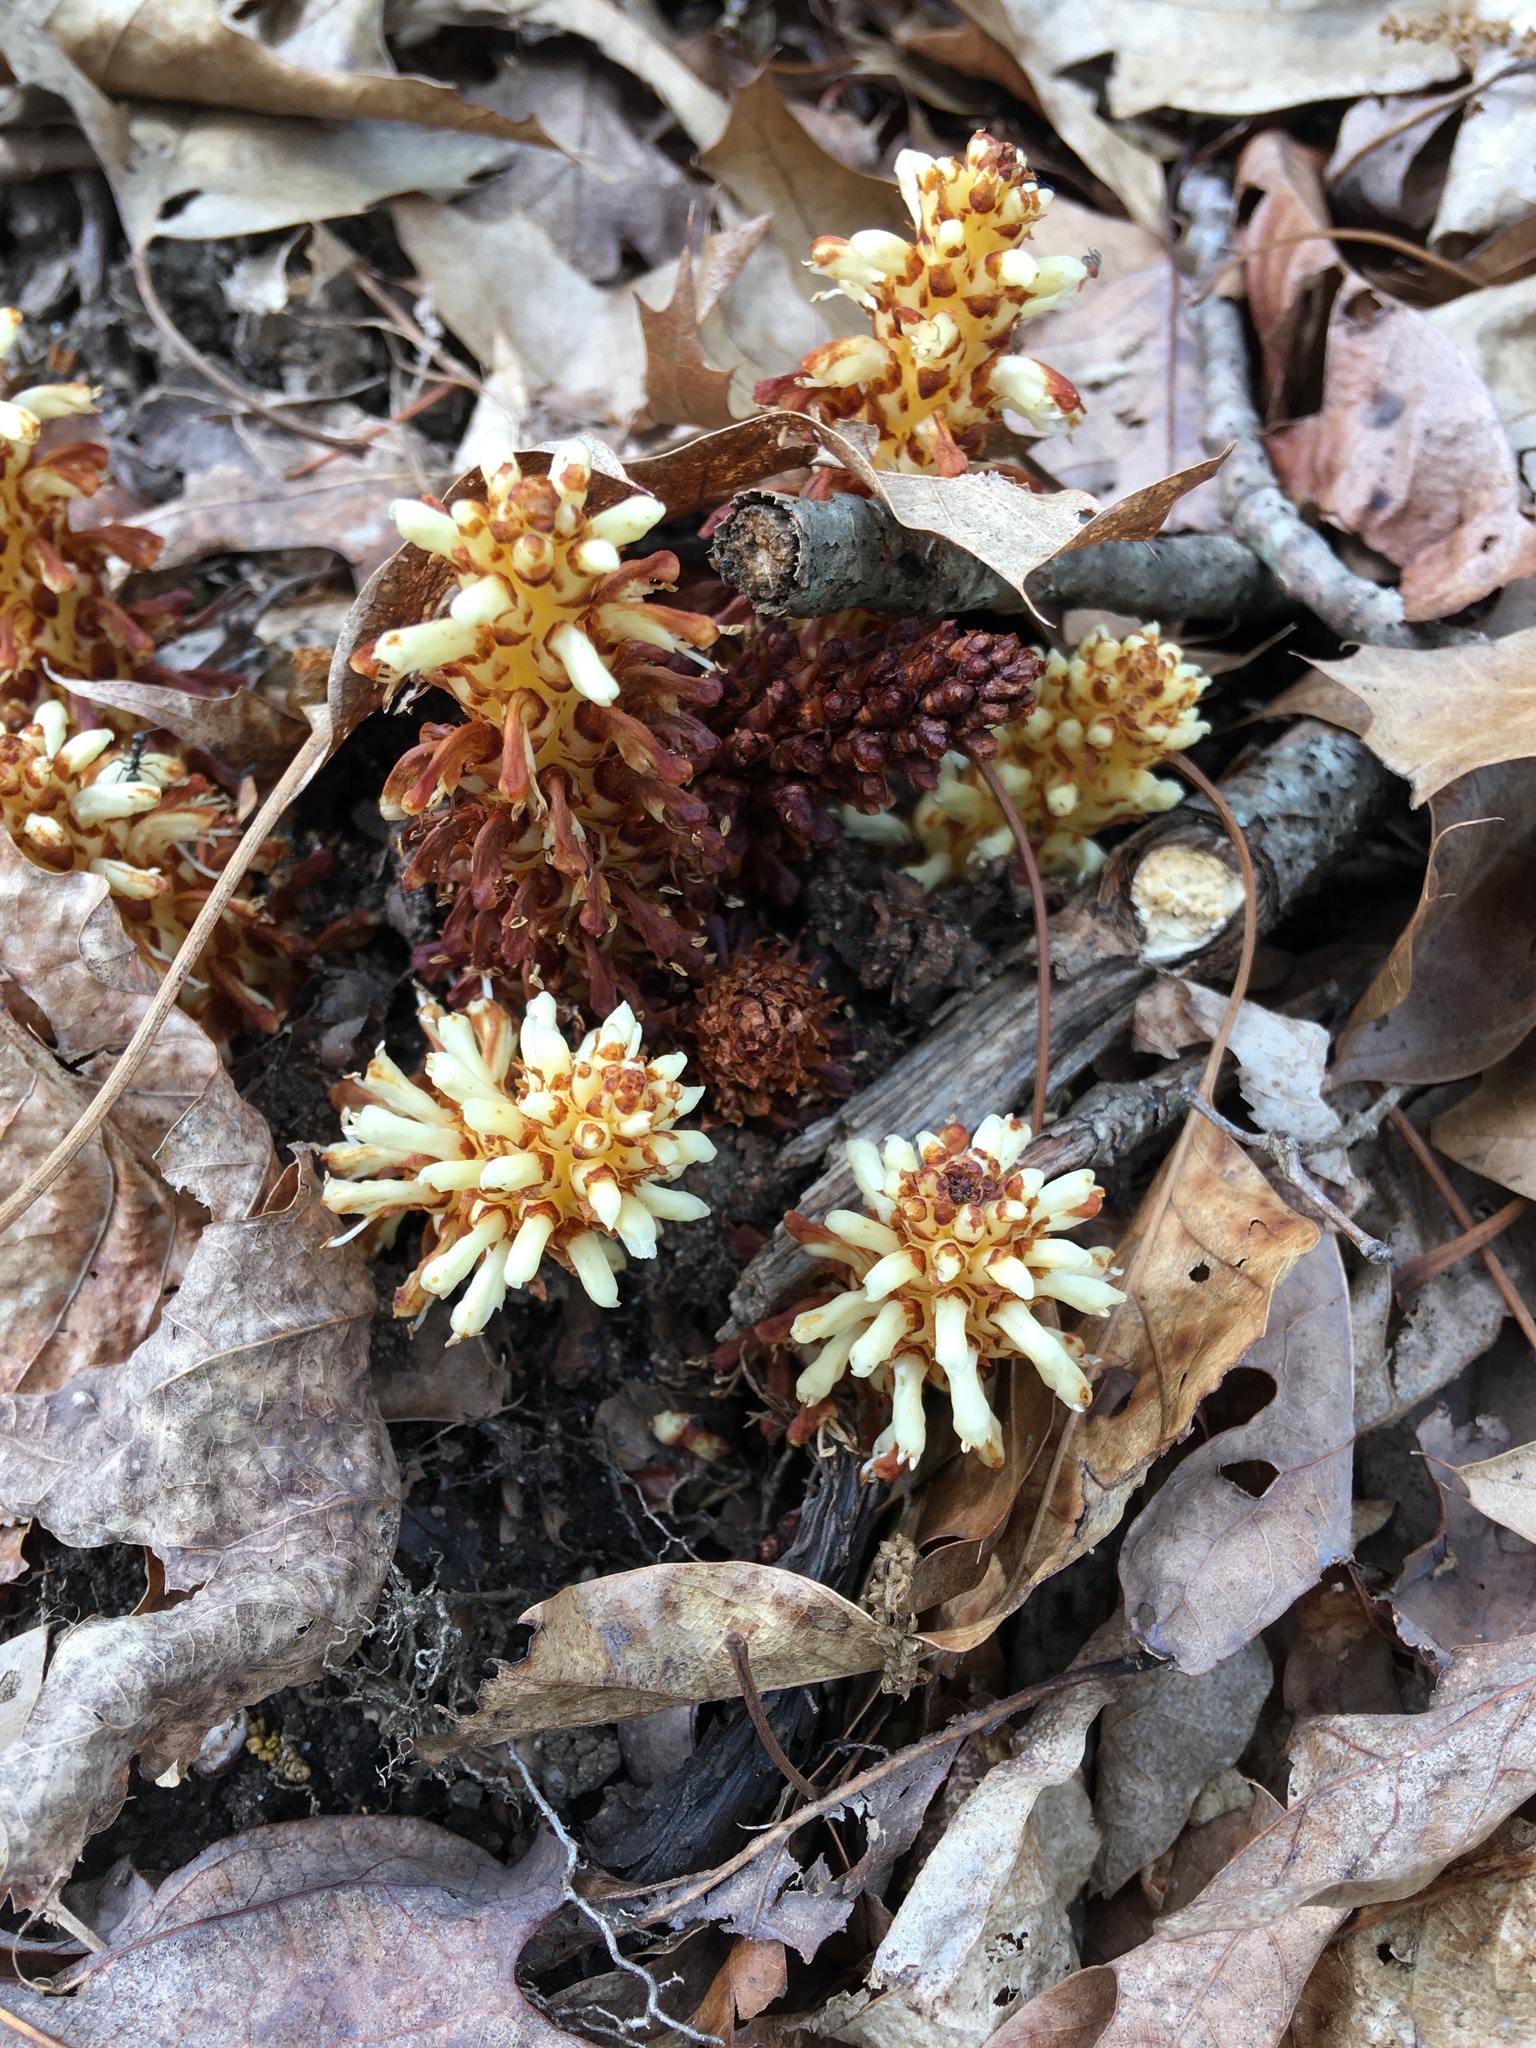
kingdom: Plantae
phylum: Tracheophyta
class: Magnoliopsida
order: Lamiales
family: Orobanchaceae
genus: Conopholis
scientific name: Conopholis americana
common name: American cancer-root
